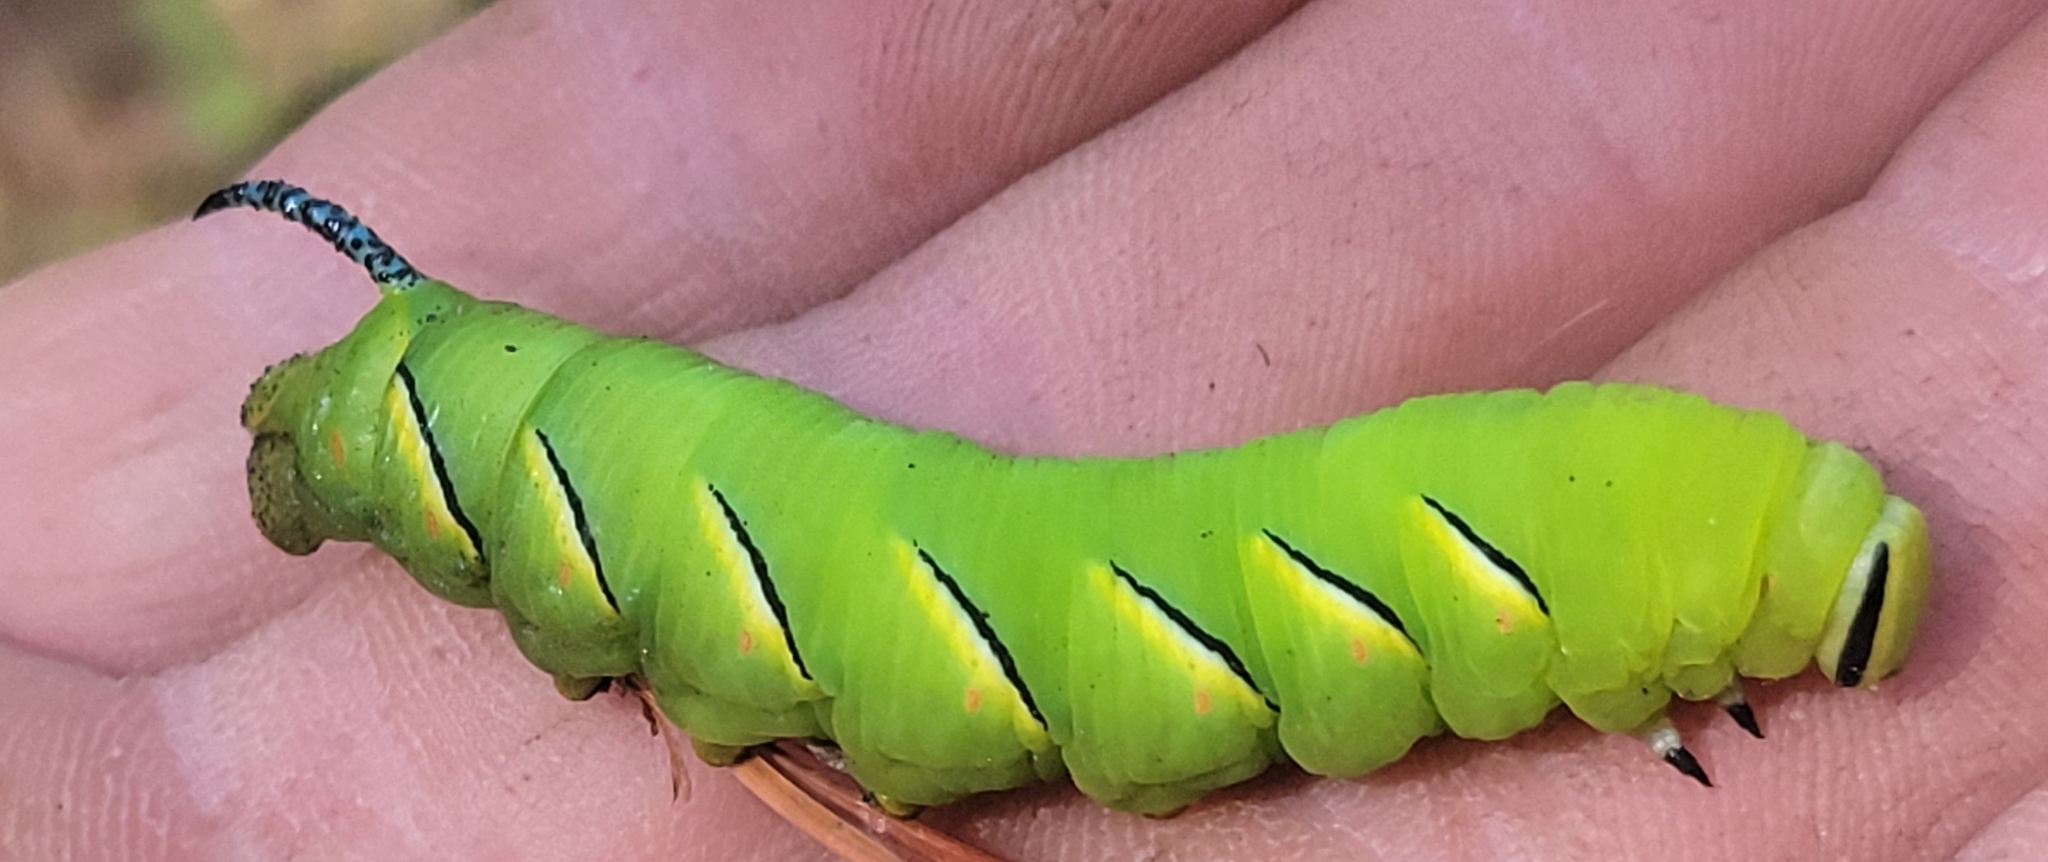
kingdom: Animalia
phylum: Arthropoda
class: Insecta
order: Lepidoptera
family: Sphingidae
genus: Sphinx
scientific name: Sphinx kalmiae
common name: Laurel sphinx
